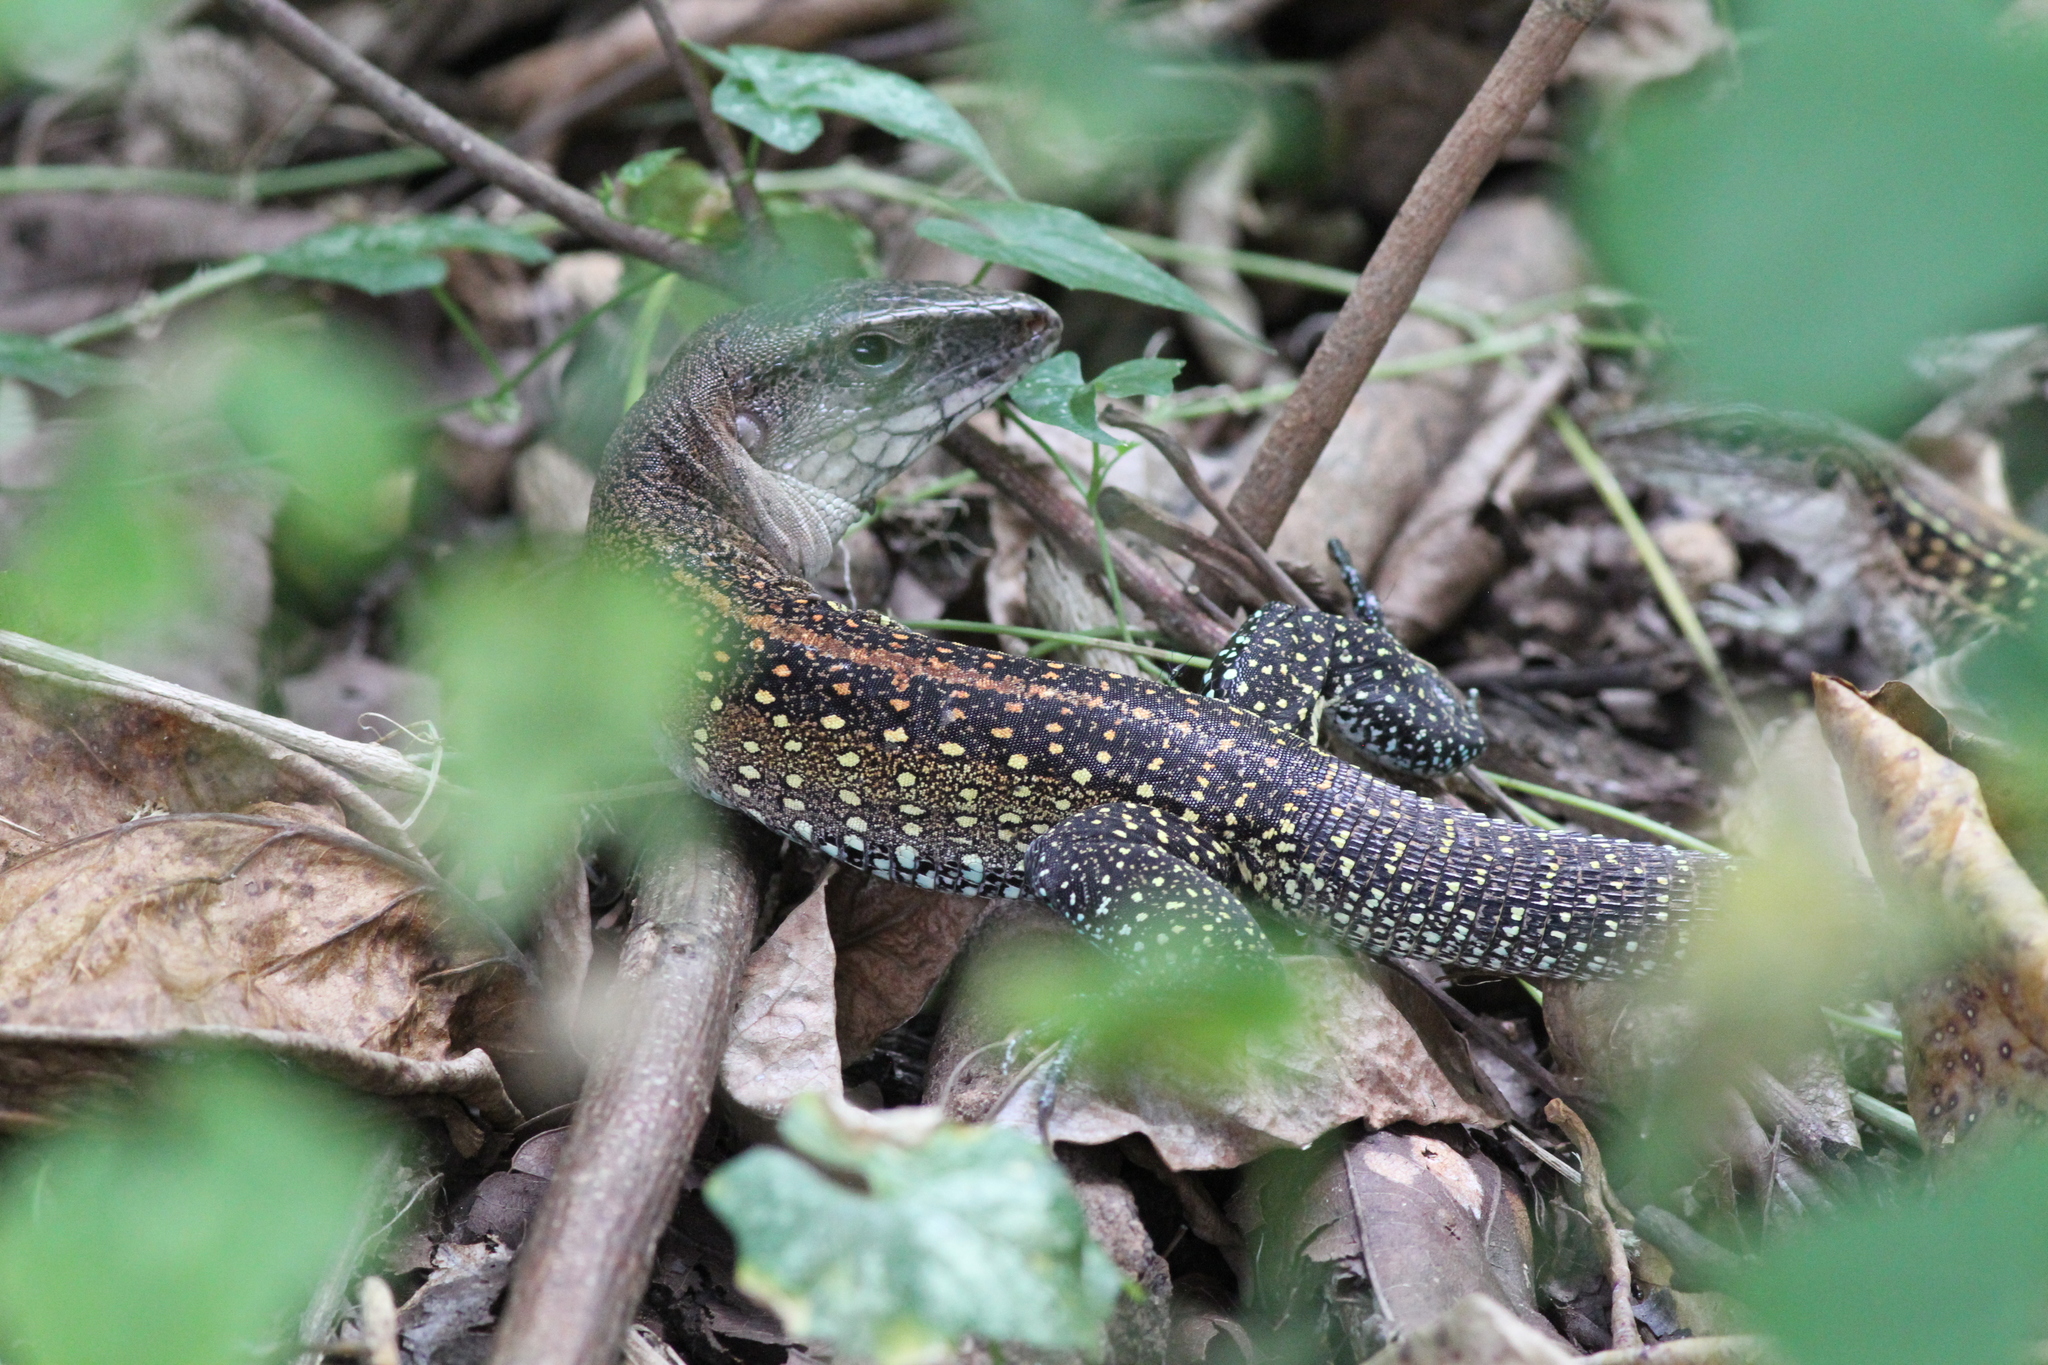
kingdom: Animalia
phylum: Chordata
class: Squamata
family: Teiidae
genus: Ameiva
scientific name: Ameiva praesignis
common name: Giant ameiva
